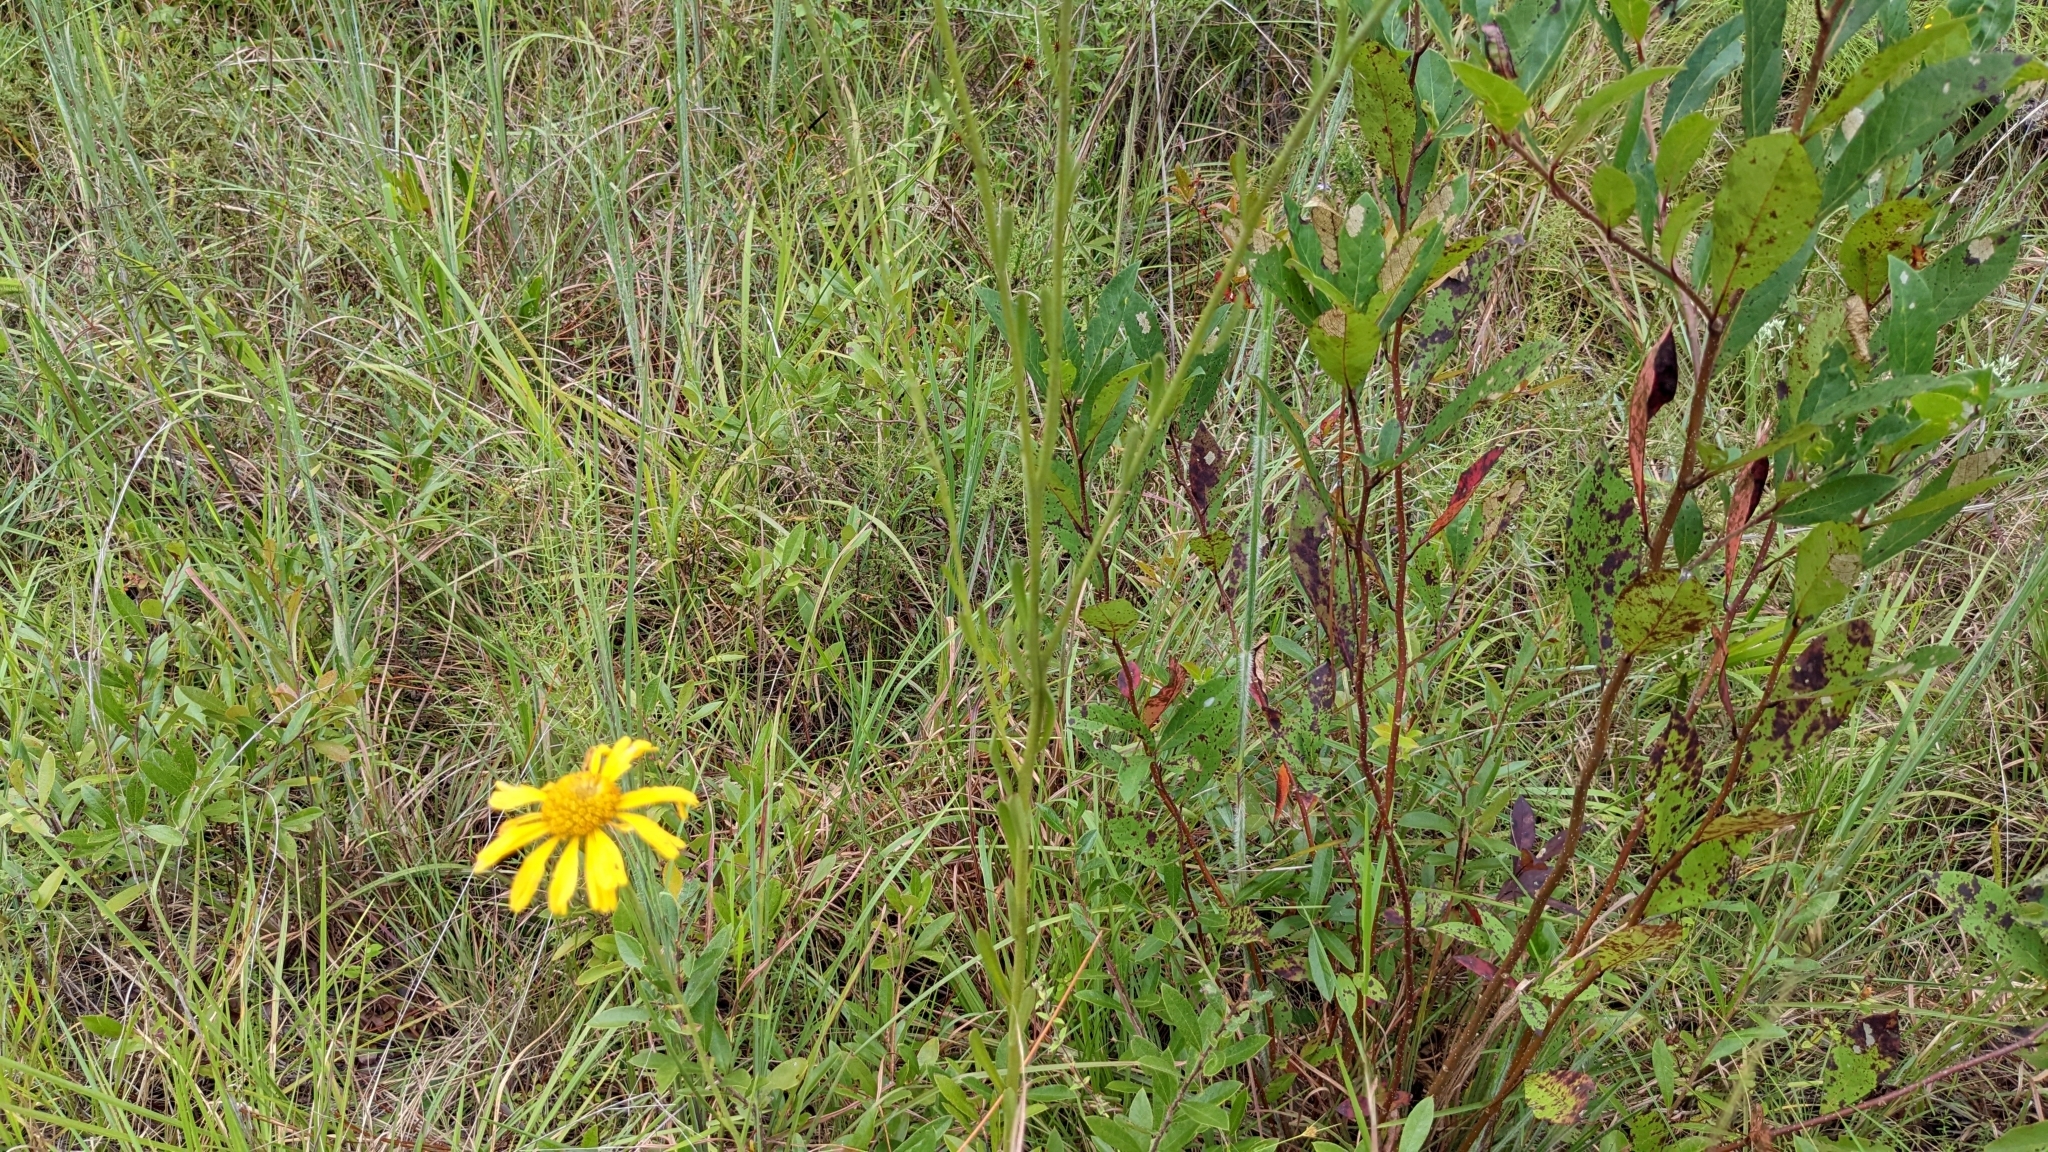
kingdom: Plantae
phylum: Tracheophyta
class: Magnoliopsida
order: Asterales
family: Asteraceae
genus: Balduina
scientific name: Balduina uniflora
